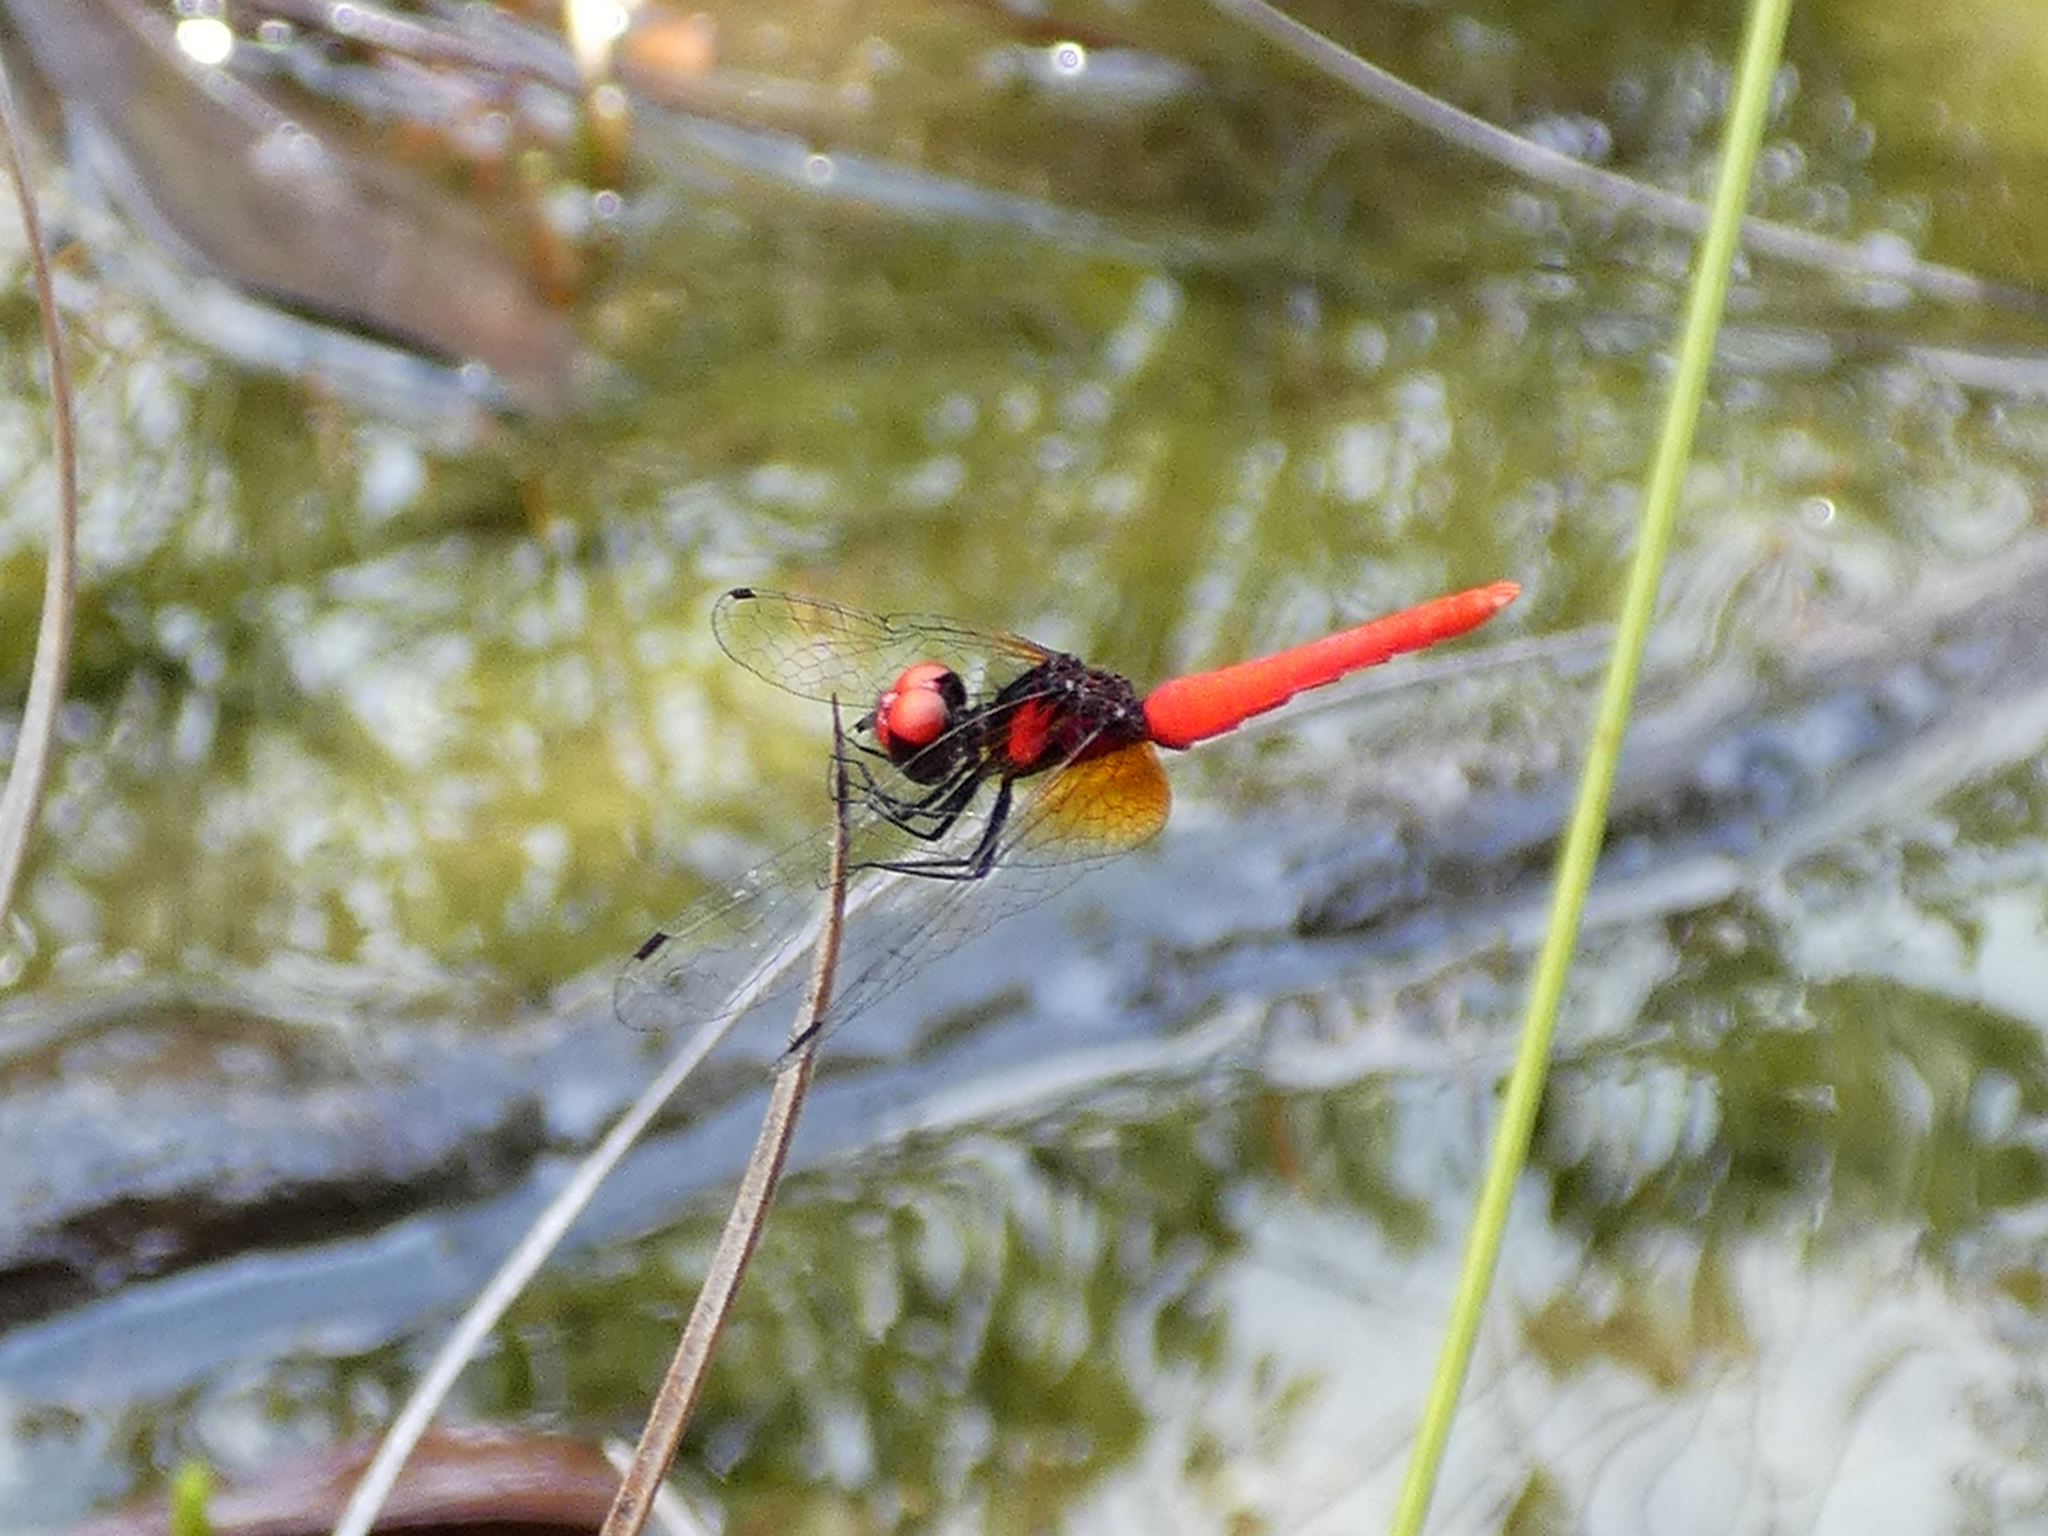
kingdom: Animalia
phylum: Arthropoda
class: Insecta
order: Odonata
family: Libellulidae
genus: Nannophya
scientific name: Nannophya pygmaea
